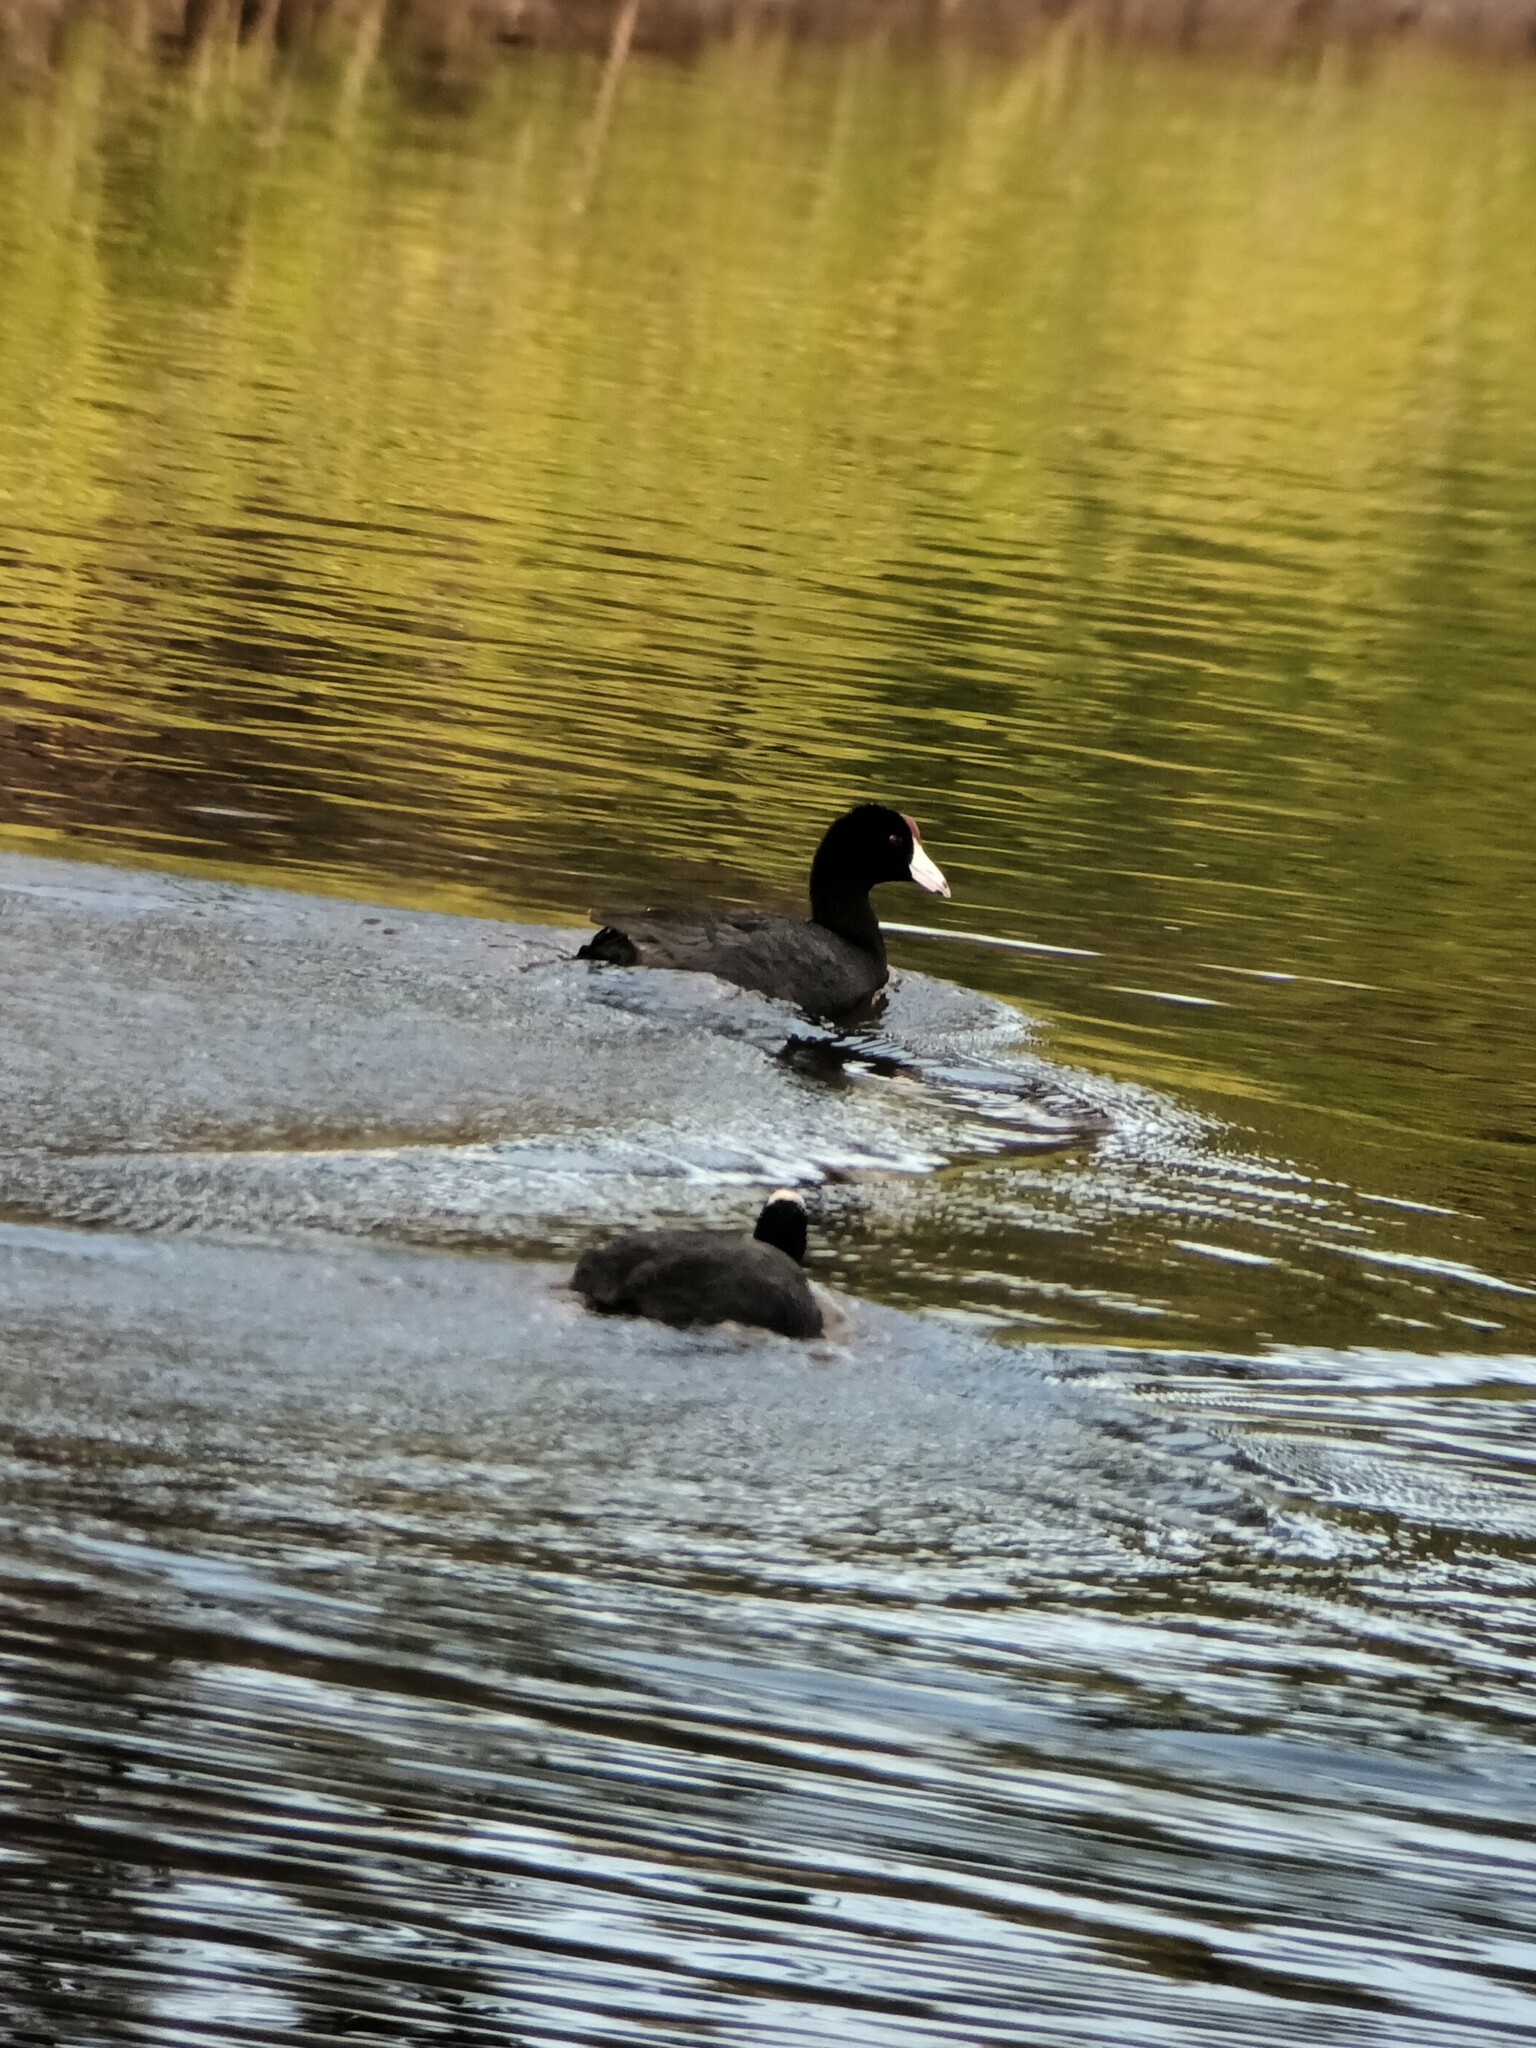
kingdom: Animalia
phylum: Chordata
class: Aves
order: Gruiformes
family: Rallidae
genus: Fulica
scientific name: Fulica alai
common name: Hawaiian coot
